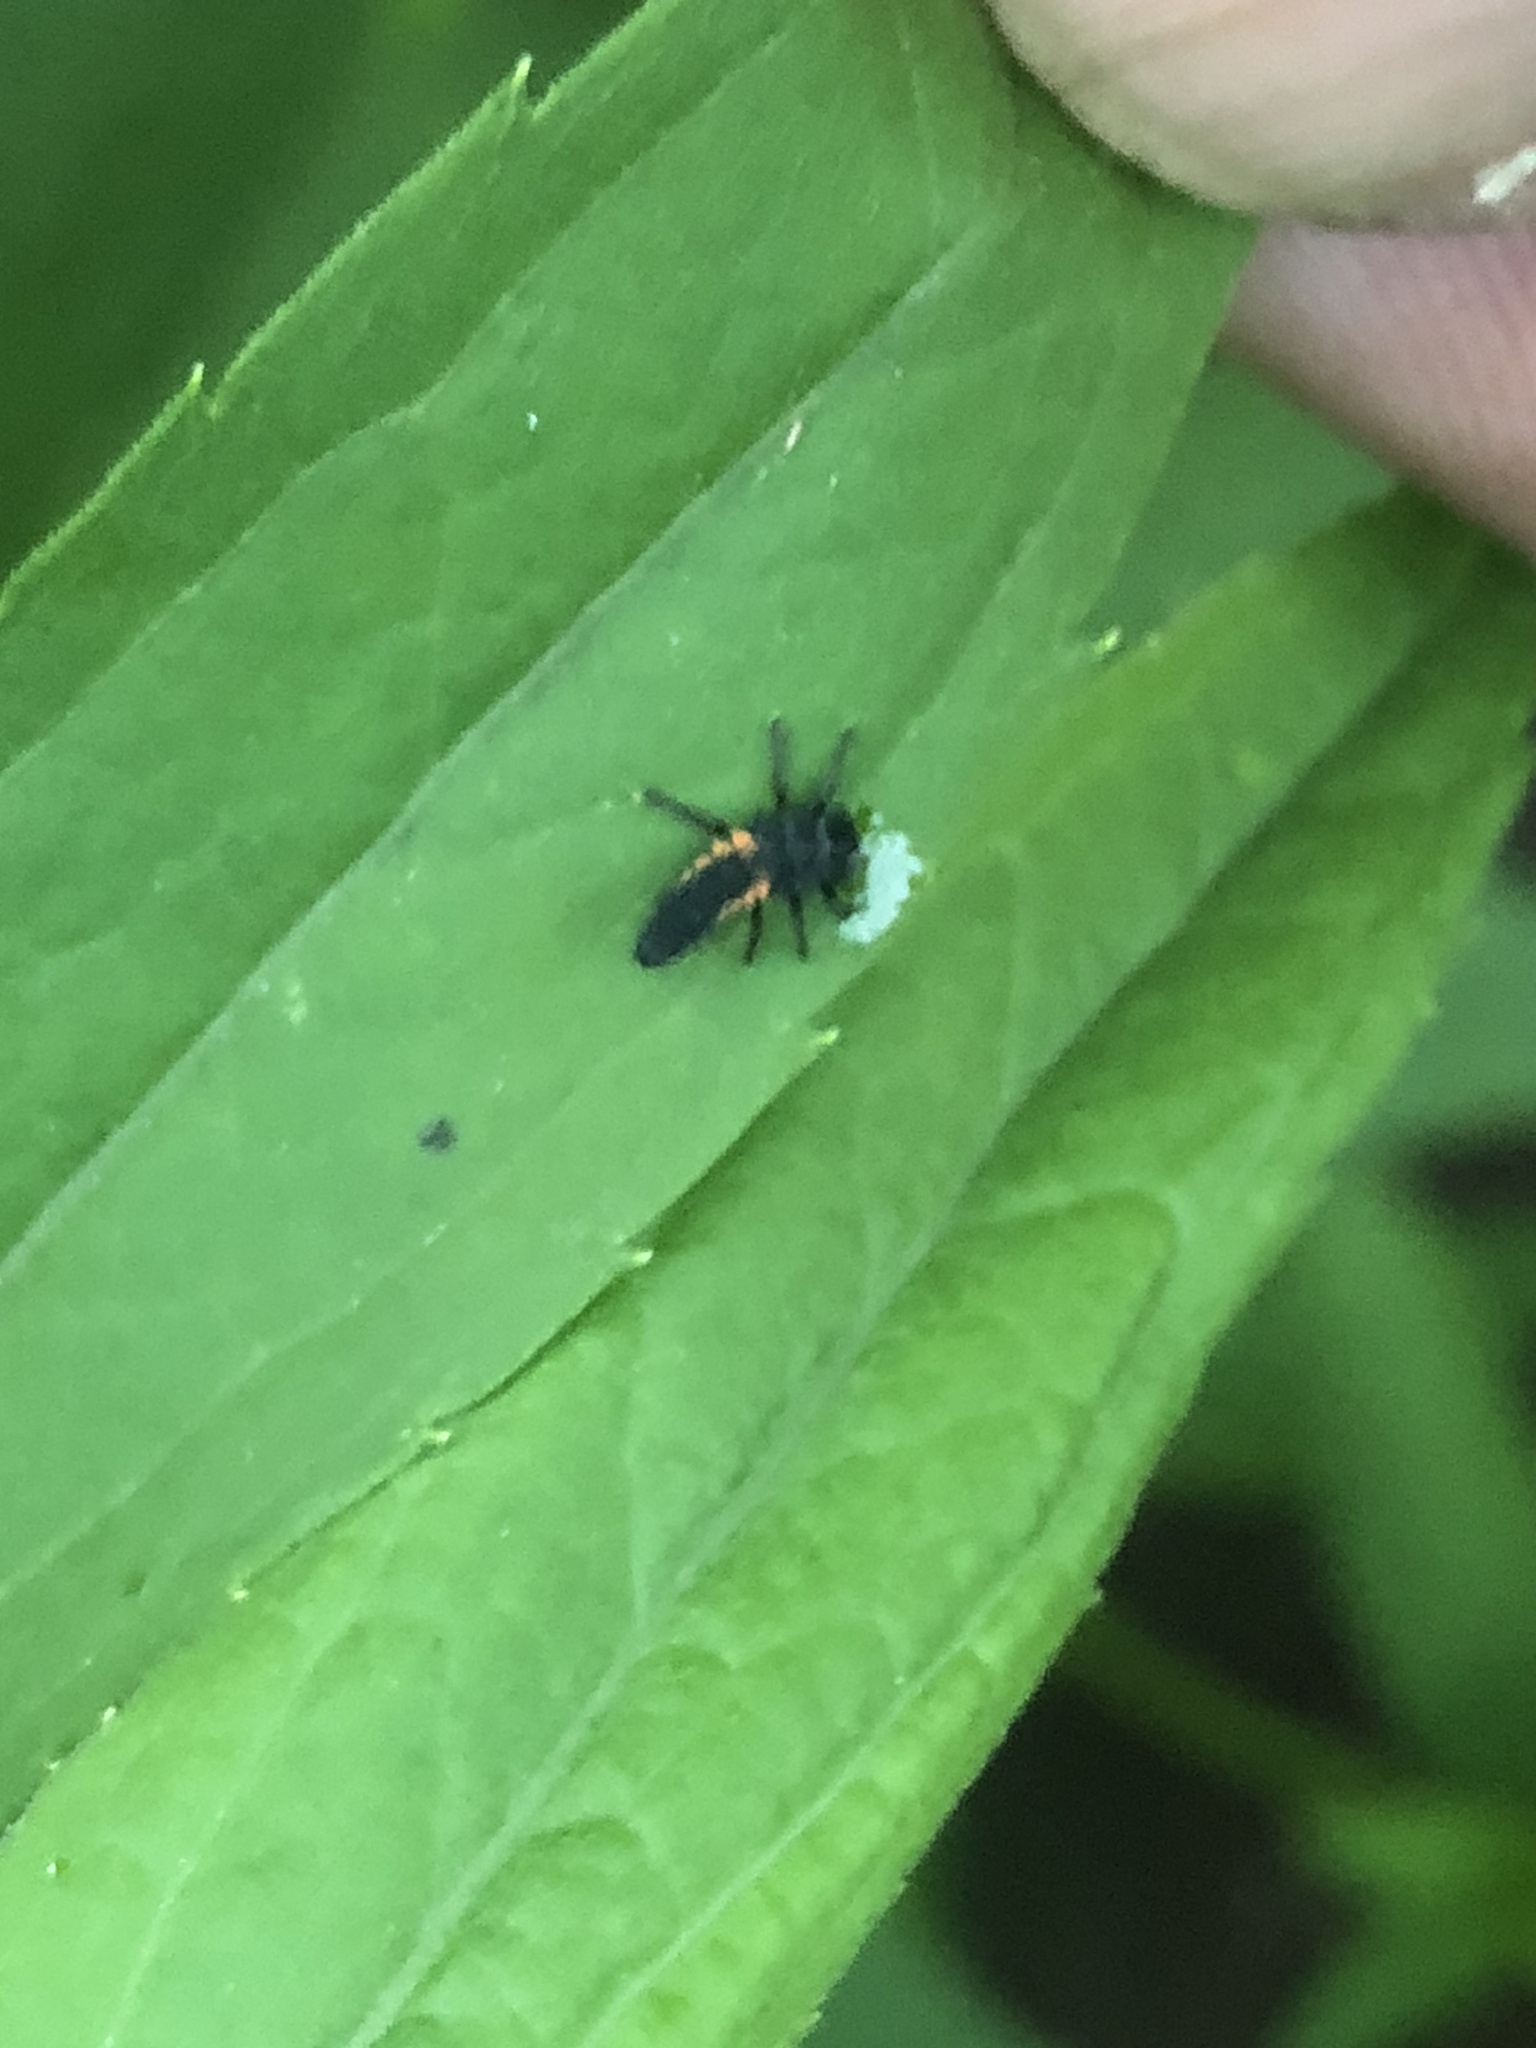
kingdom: Animalia
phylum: Arthropoda
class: Insecta
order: Coleoptera
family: Coccinellidae
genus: Harmonia
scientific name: Harmonia axyridis
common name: Harlequin ladybird
